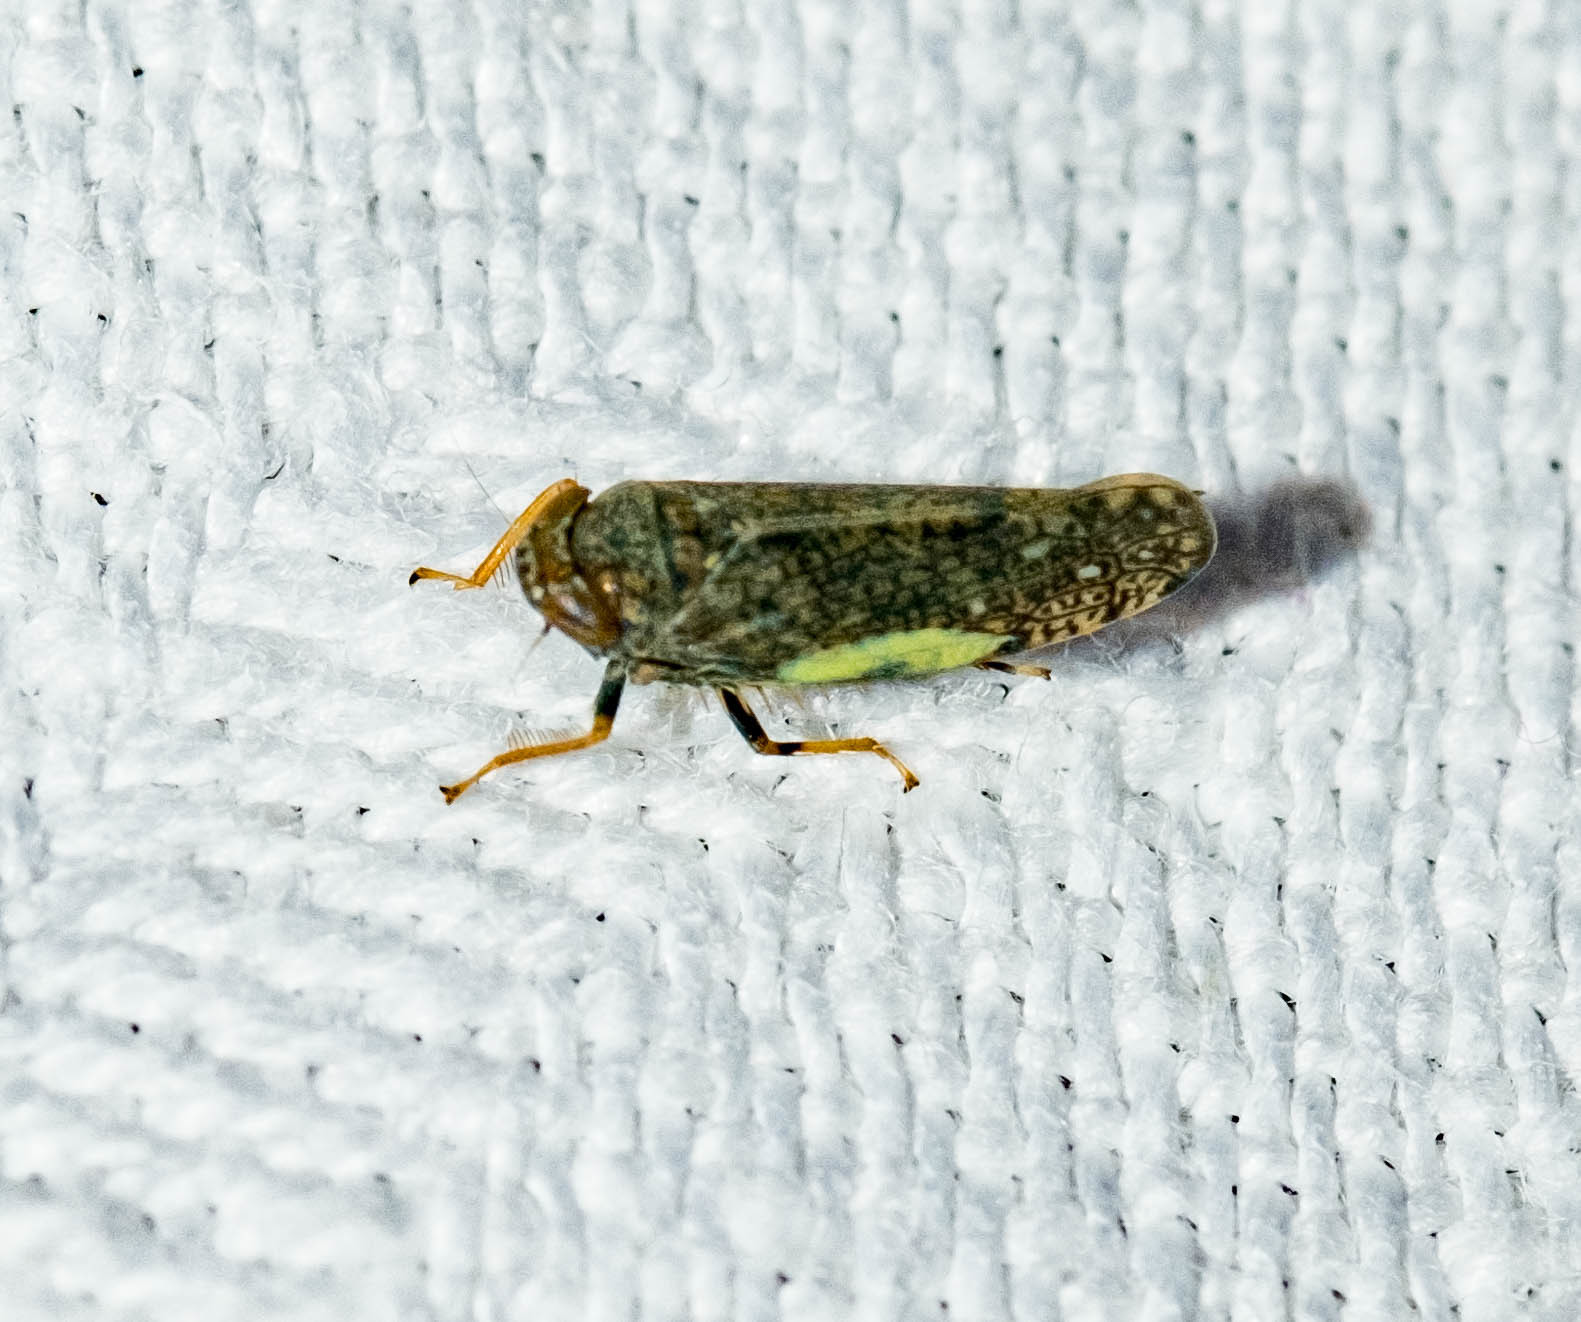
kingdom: Animalia
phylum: Arthropoda
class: Insecta
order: Hemiptera
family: Cicadellidae
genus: Orientus
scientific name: Orientus ishidae
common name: Japanese leafhopper
